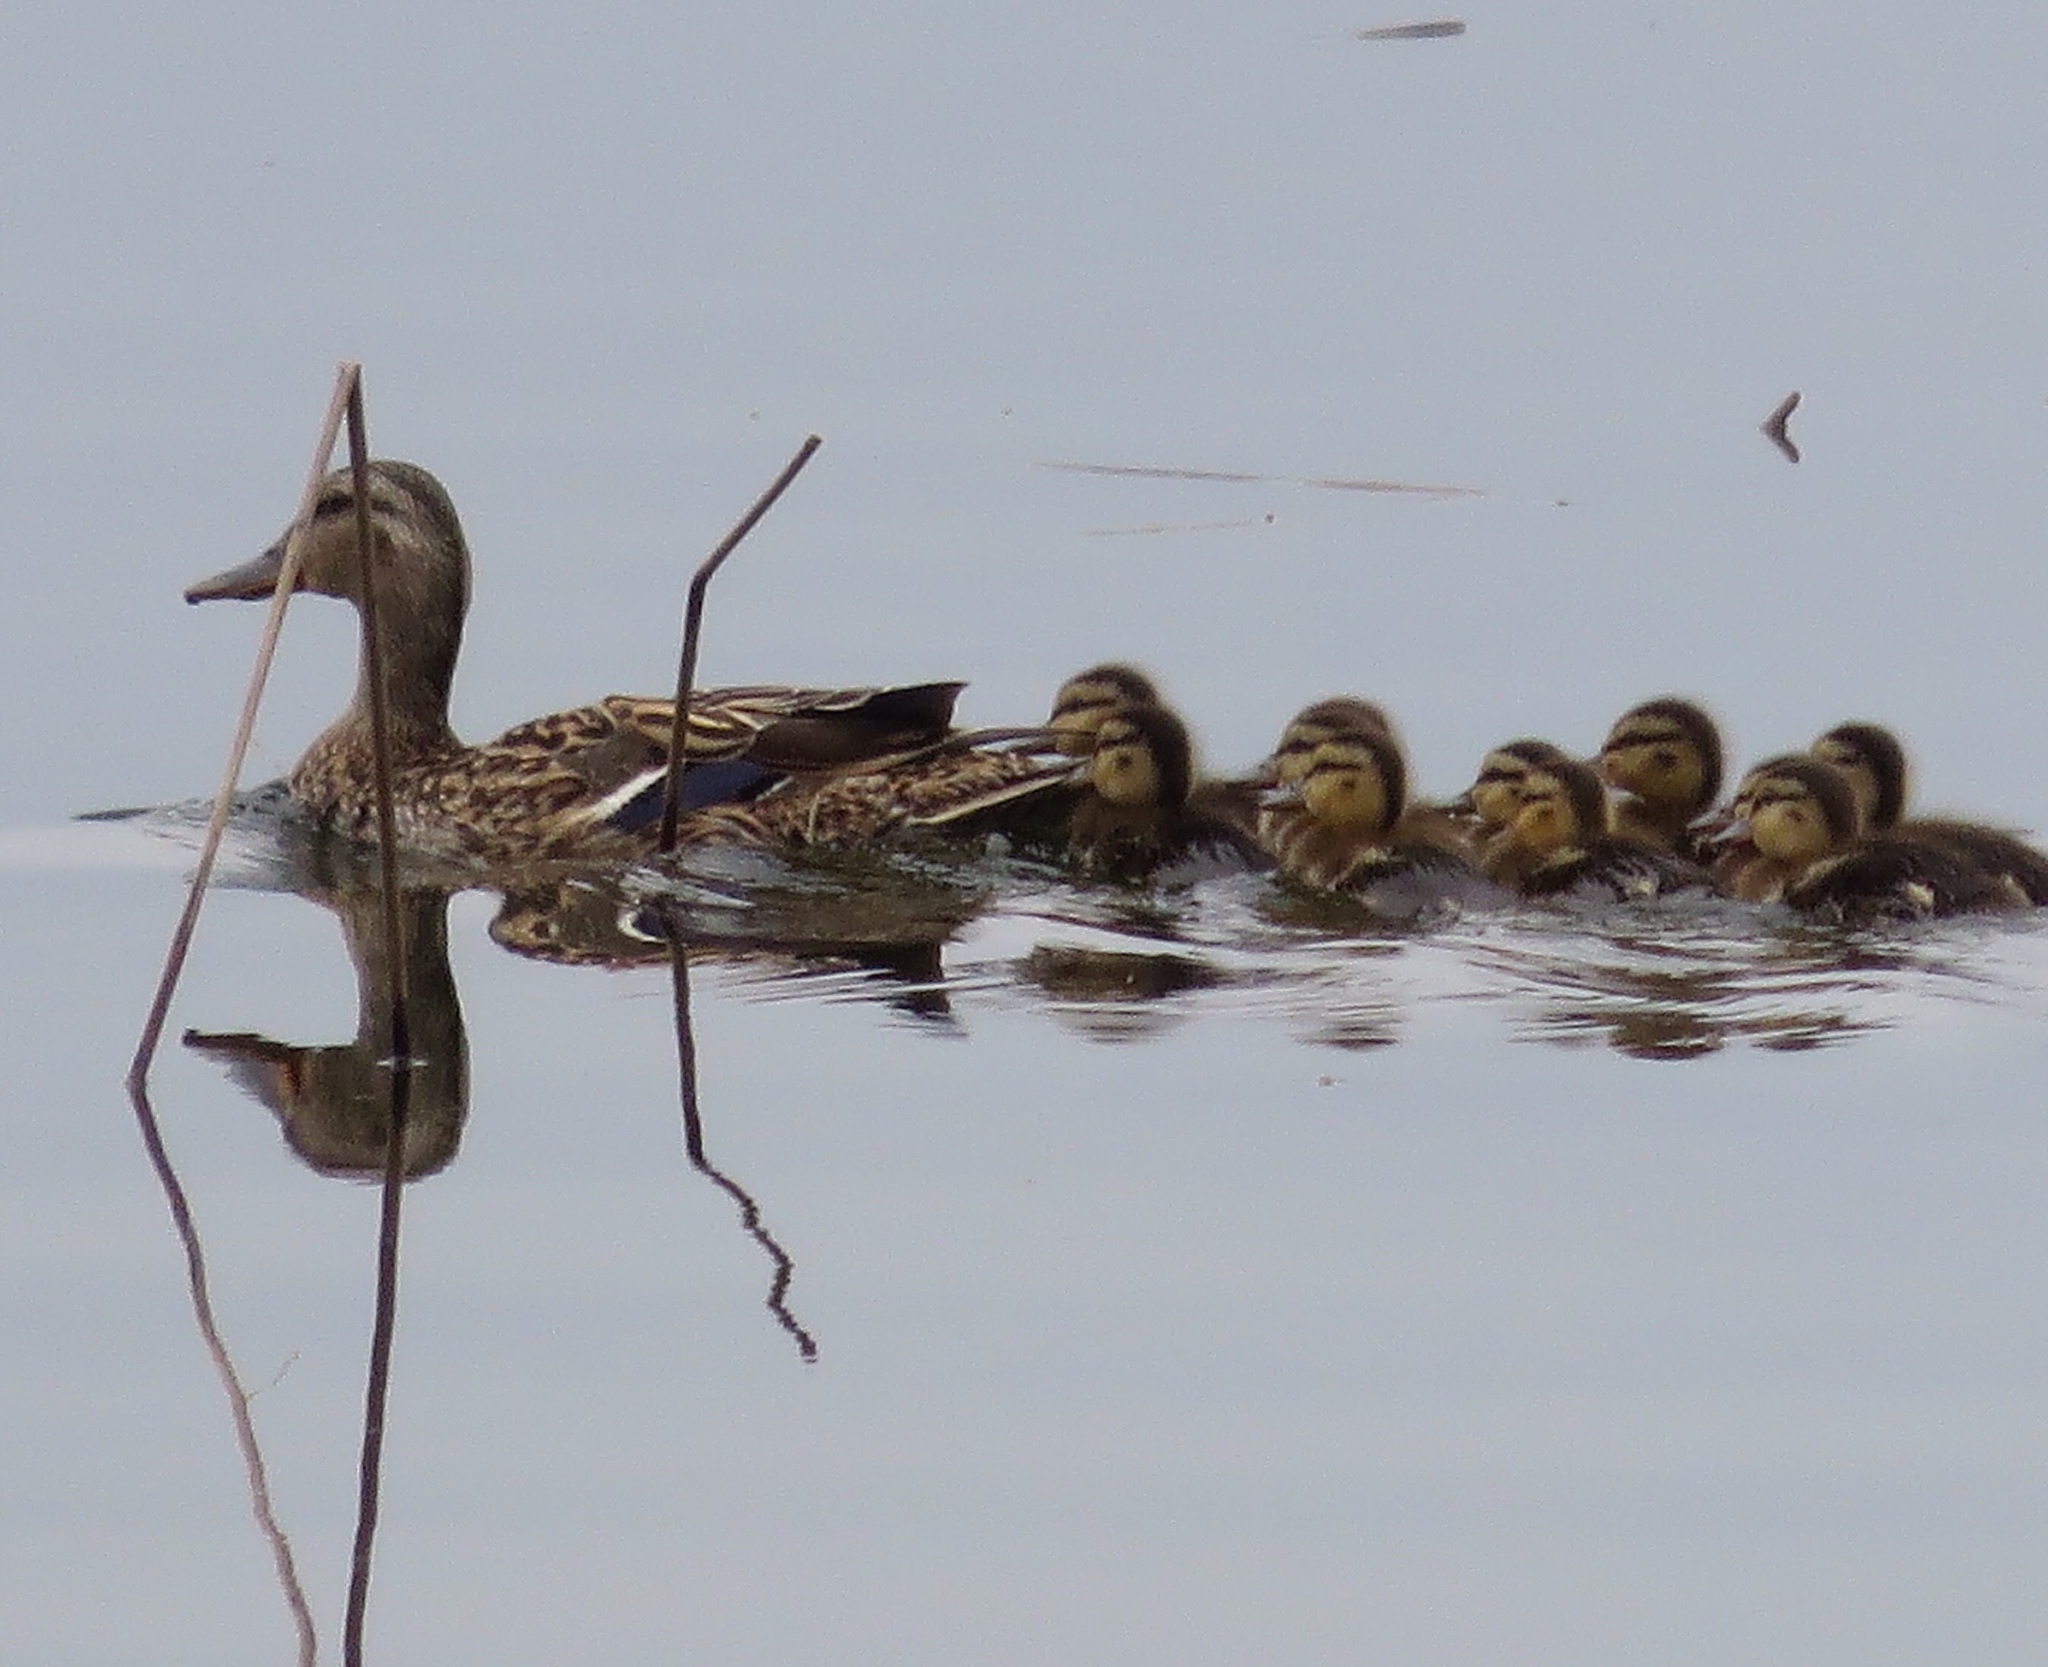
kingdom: Animalia
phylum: Chordata
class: Aves
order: Anseriformes
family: Anatidae
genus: Anas
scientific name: Anas platyrhynchos
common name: Mallard
